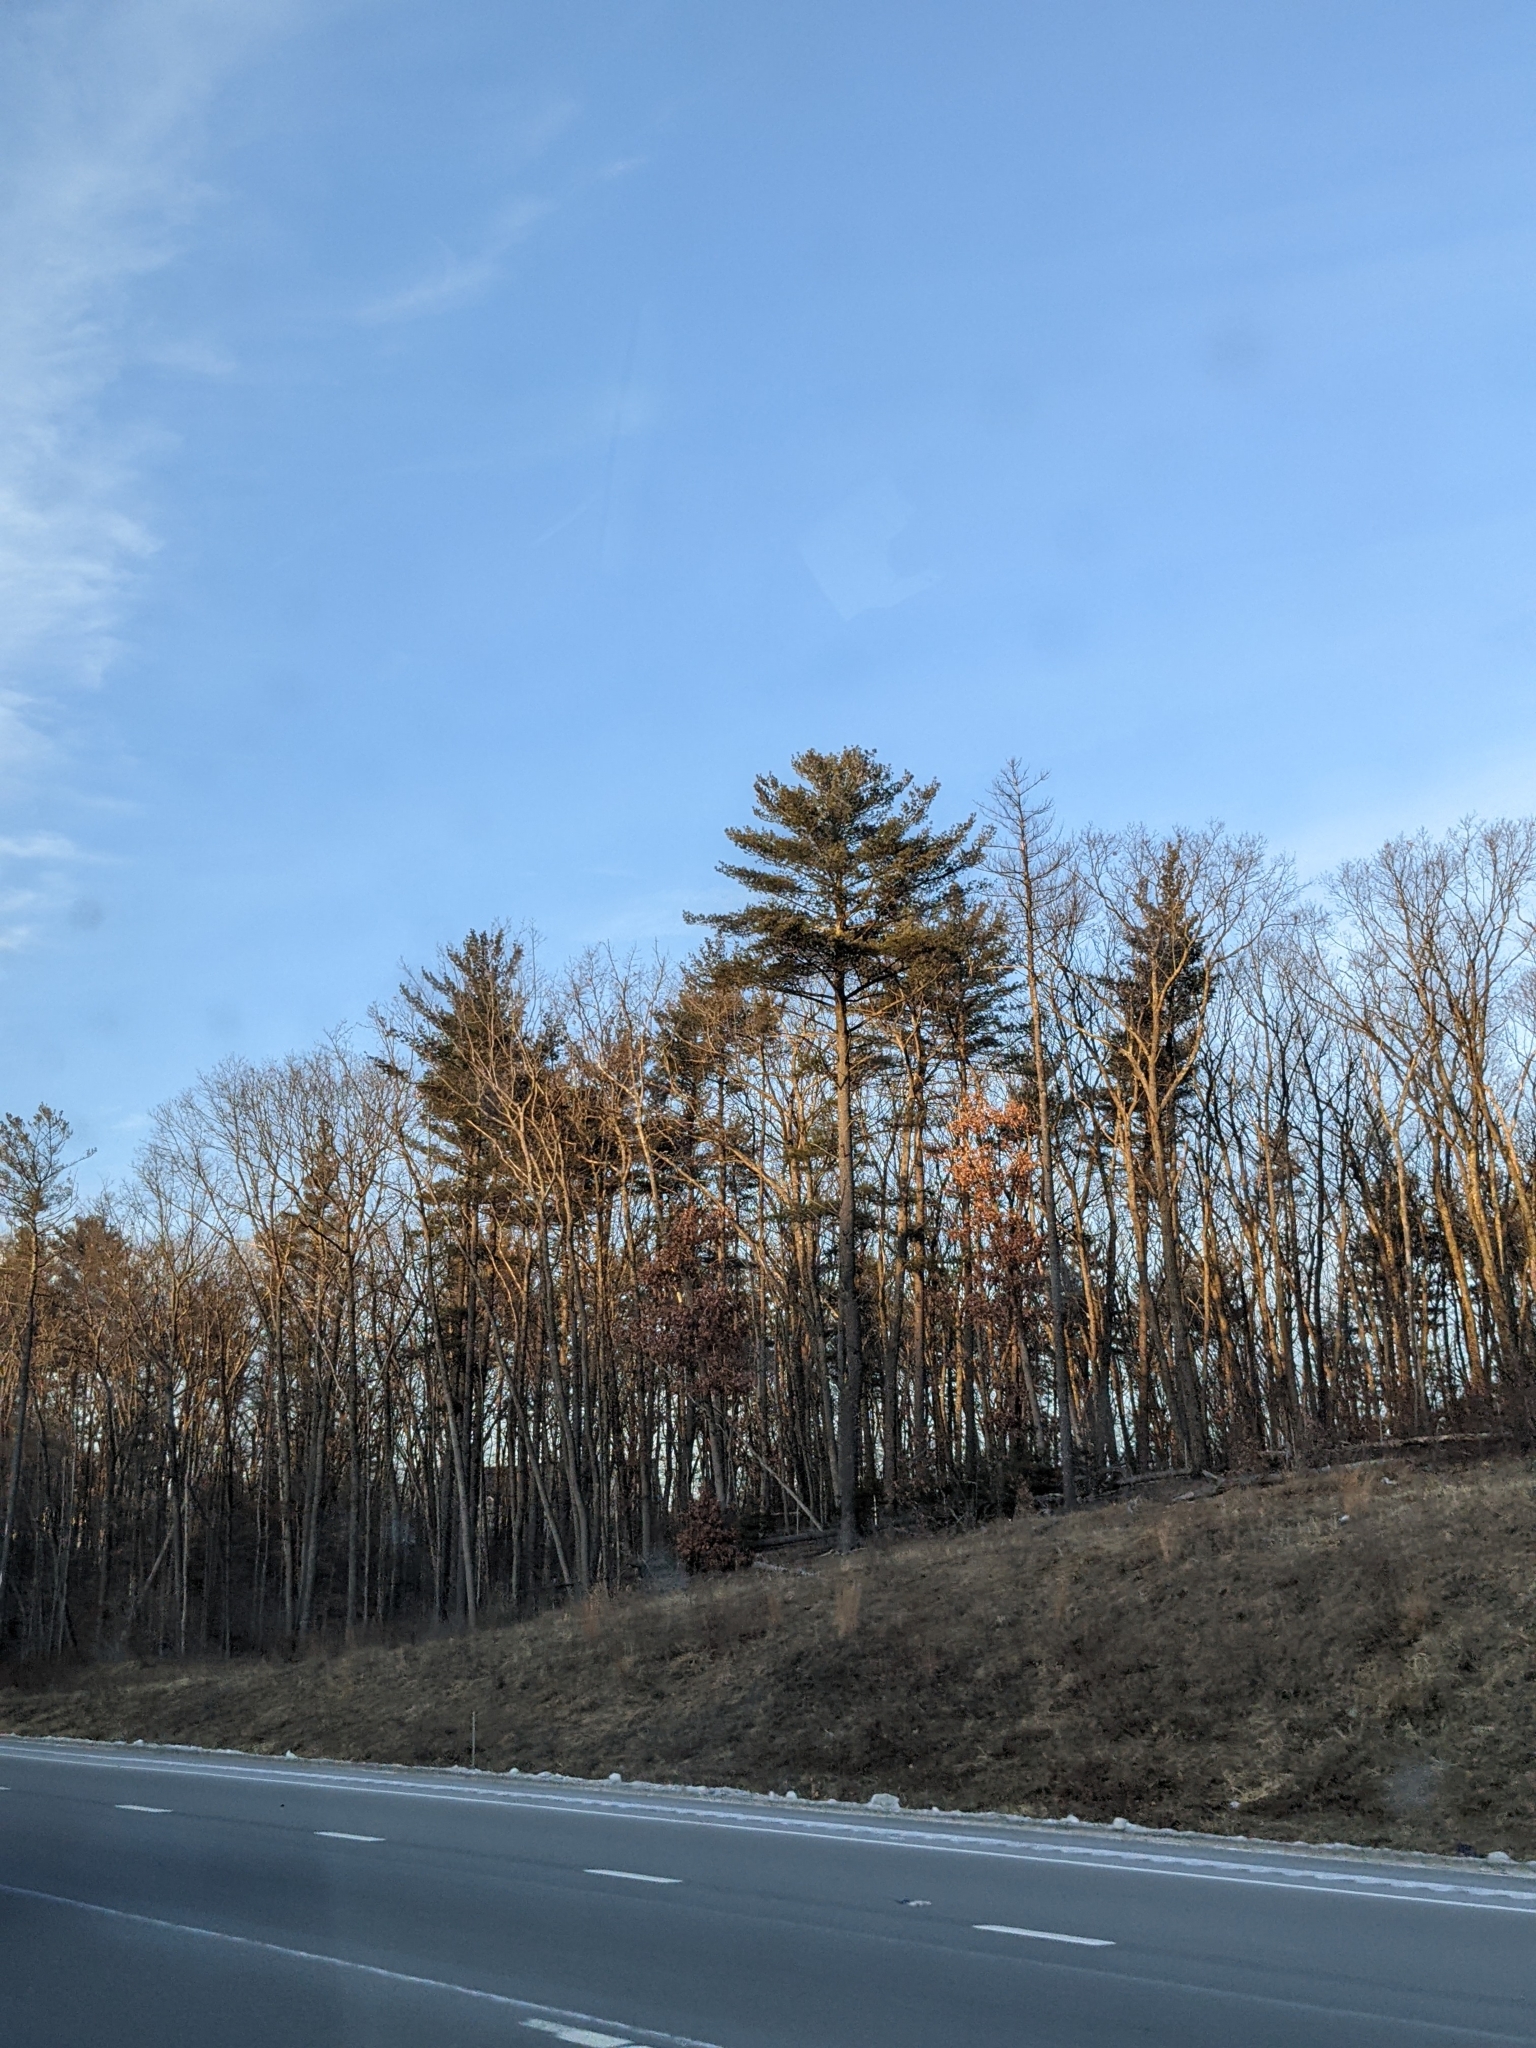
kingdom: Plantae
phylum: Tracheophyta
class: Pinopsida
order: Pinales
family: Pinaceae
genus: Pinus
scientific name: Pinus strobus
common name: Weymouth pine
